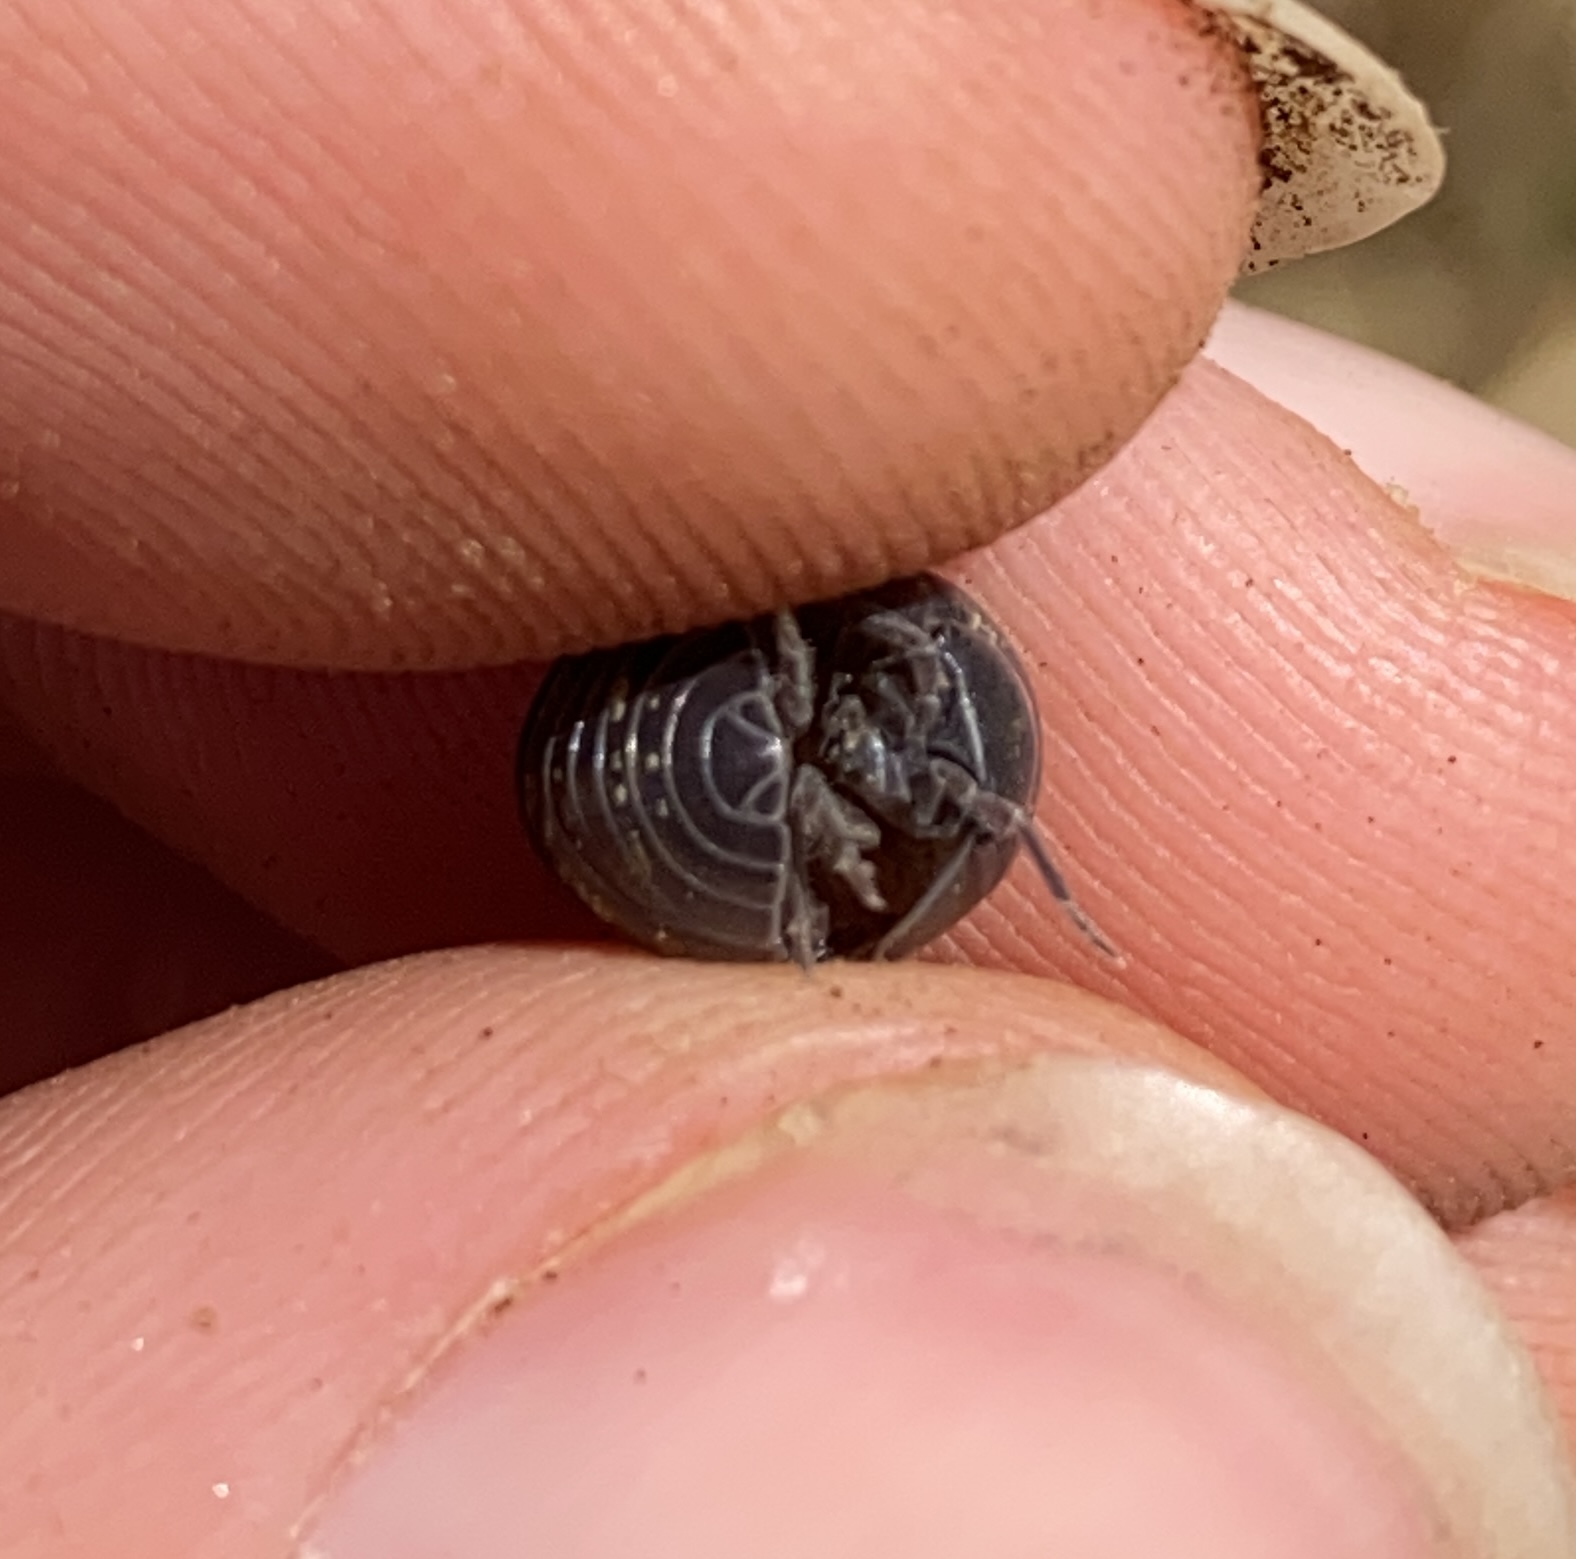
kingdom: Animalia
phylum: Arthropoda
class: Malacostraca
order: Isopoda
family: Armadillidiidae
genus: Armadillidium
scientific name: Armadillidium vulgare
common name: Common pill woodlouse
